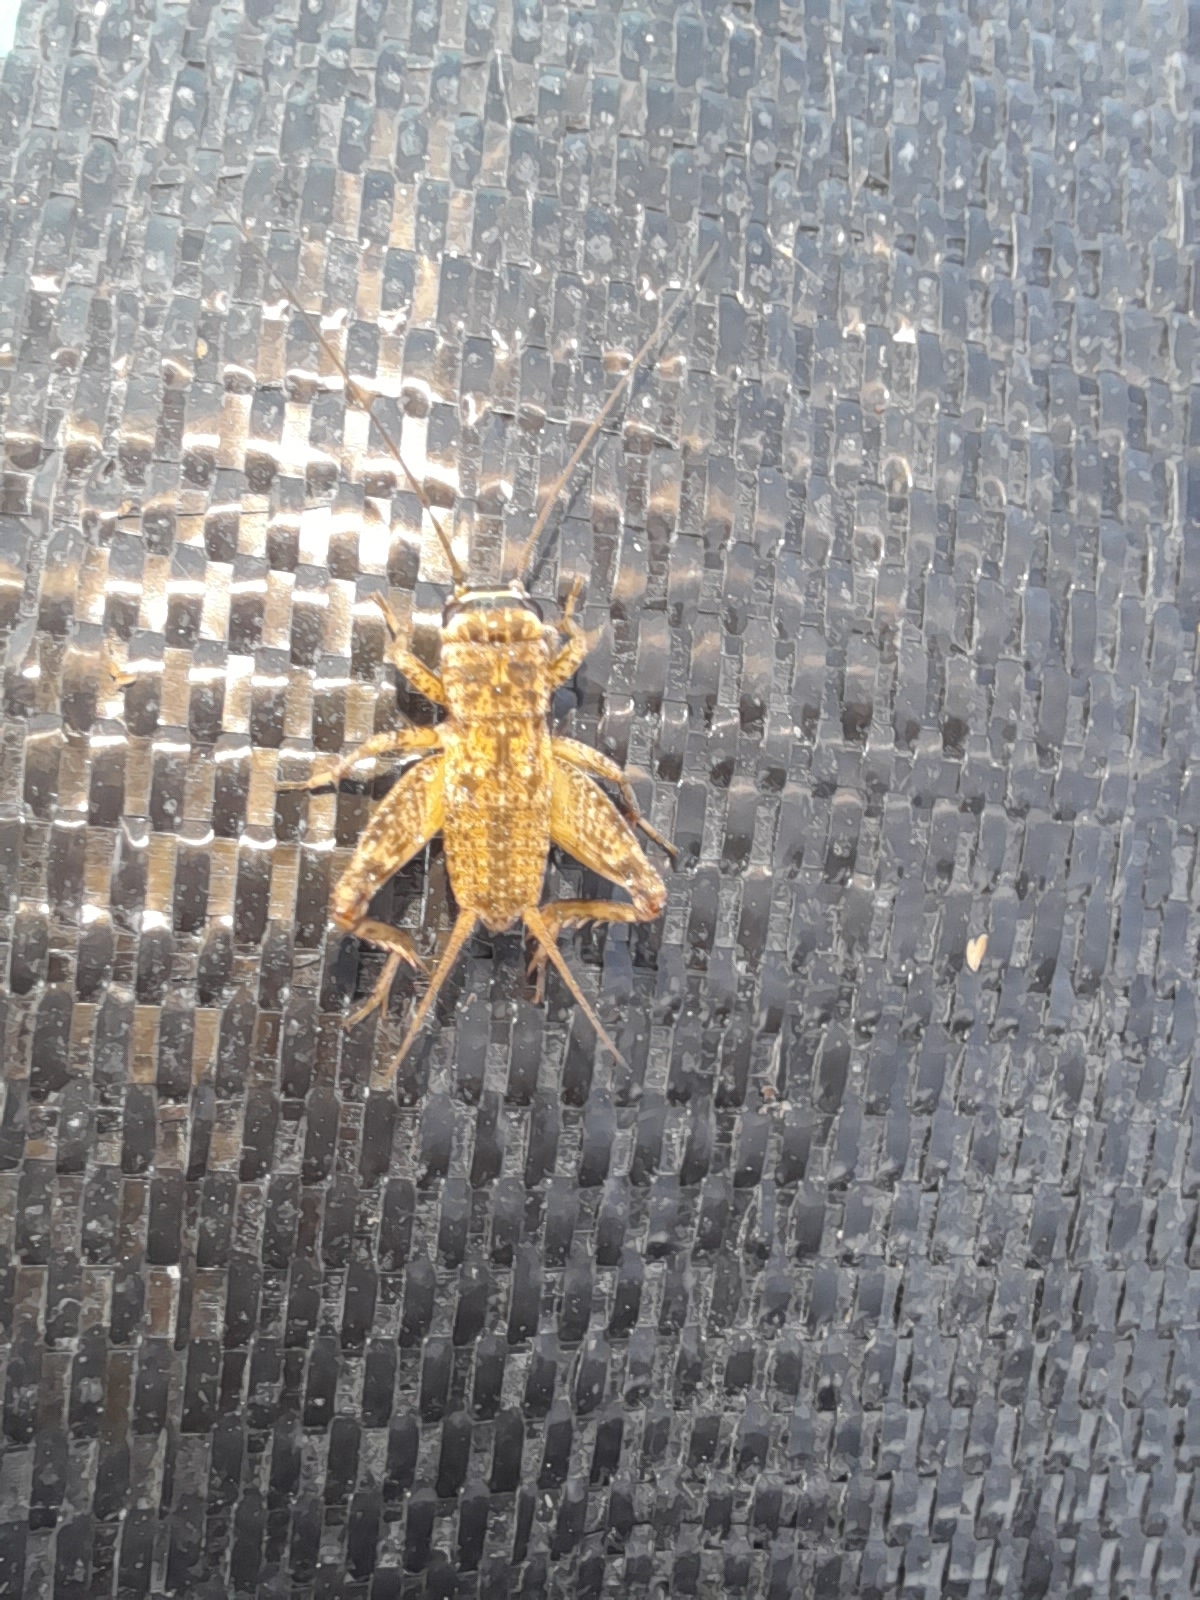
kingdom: Animalia
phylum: Arthropoda
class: Insecta
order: Orthoptera
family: Gryllidae
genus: Eumodicogryllus
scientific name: Eumodicogryllus bordigalensis
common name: Bordeaux cricket
